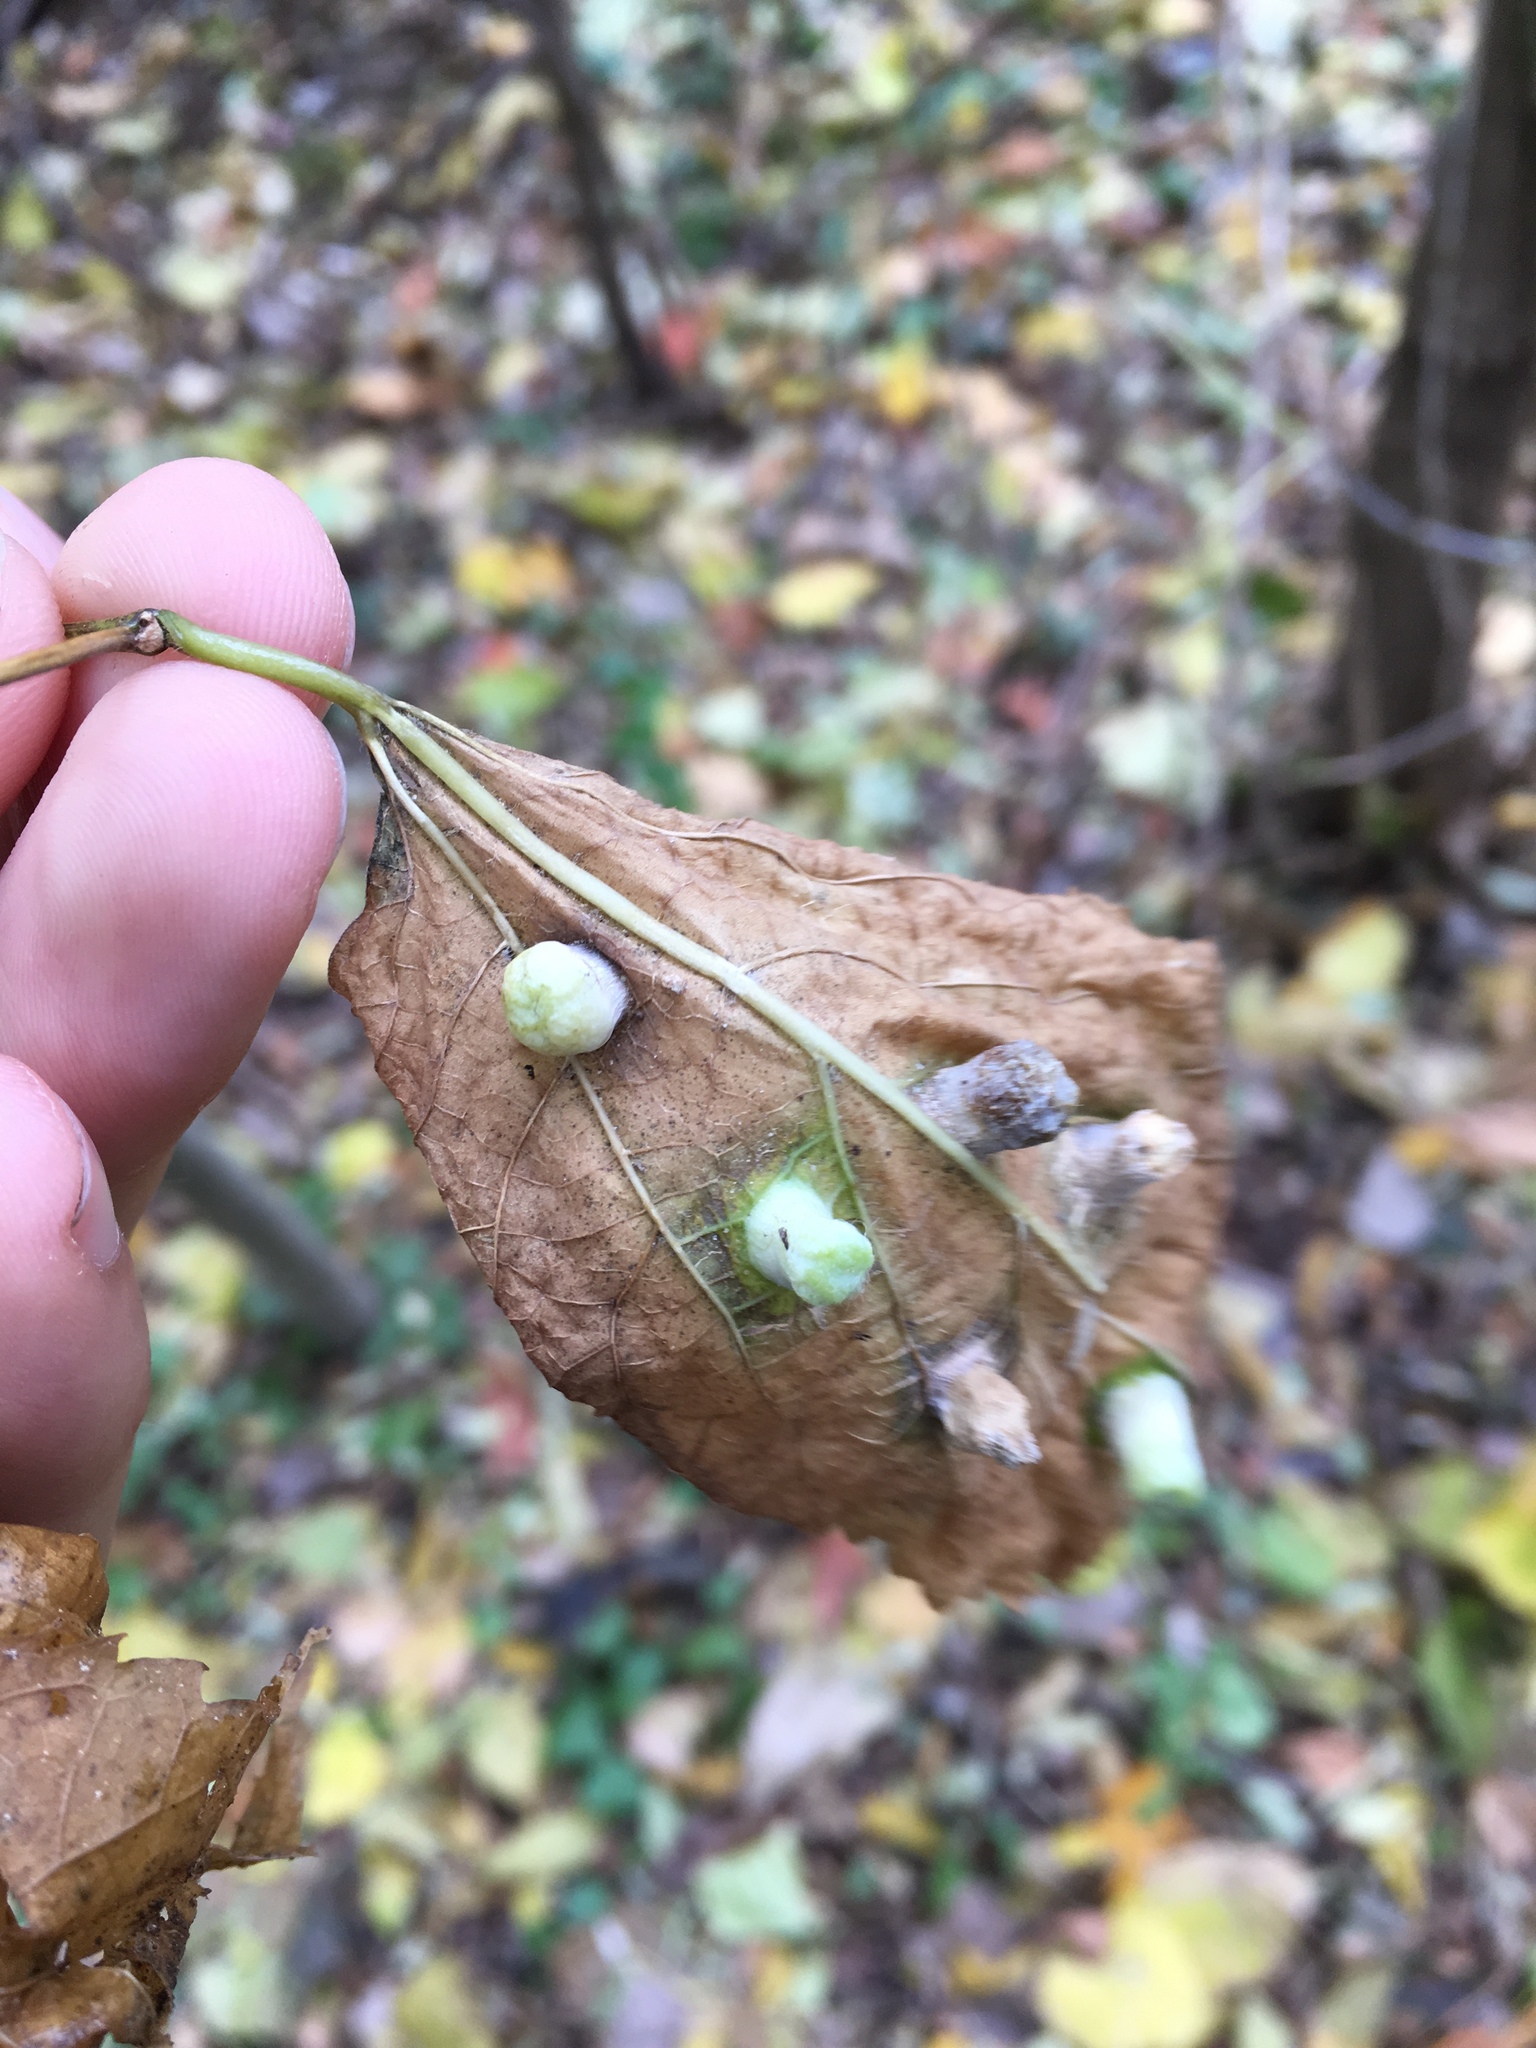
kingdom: Animalia
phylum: Arthropoda
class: Insecta
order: Hemiptera
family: Aphalaridae
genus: Pachypsylla
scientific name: Pachypsylla celtidismamma
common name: Hackberry nipplegall psyllid
